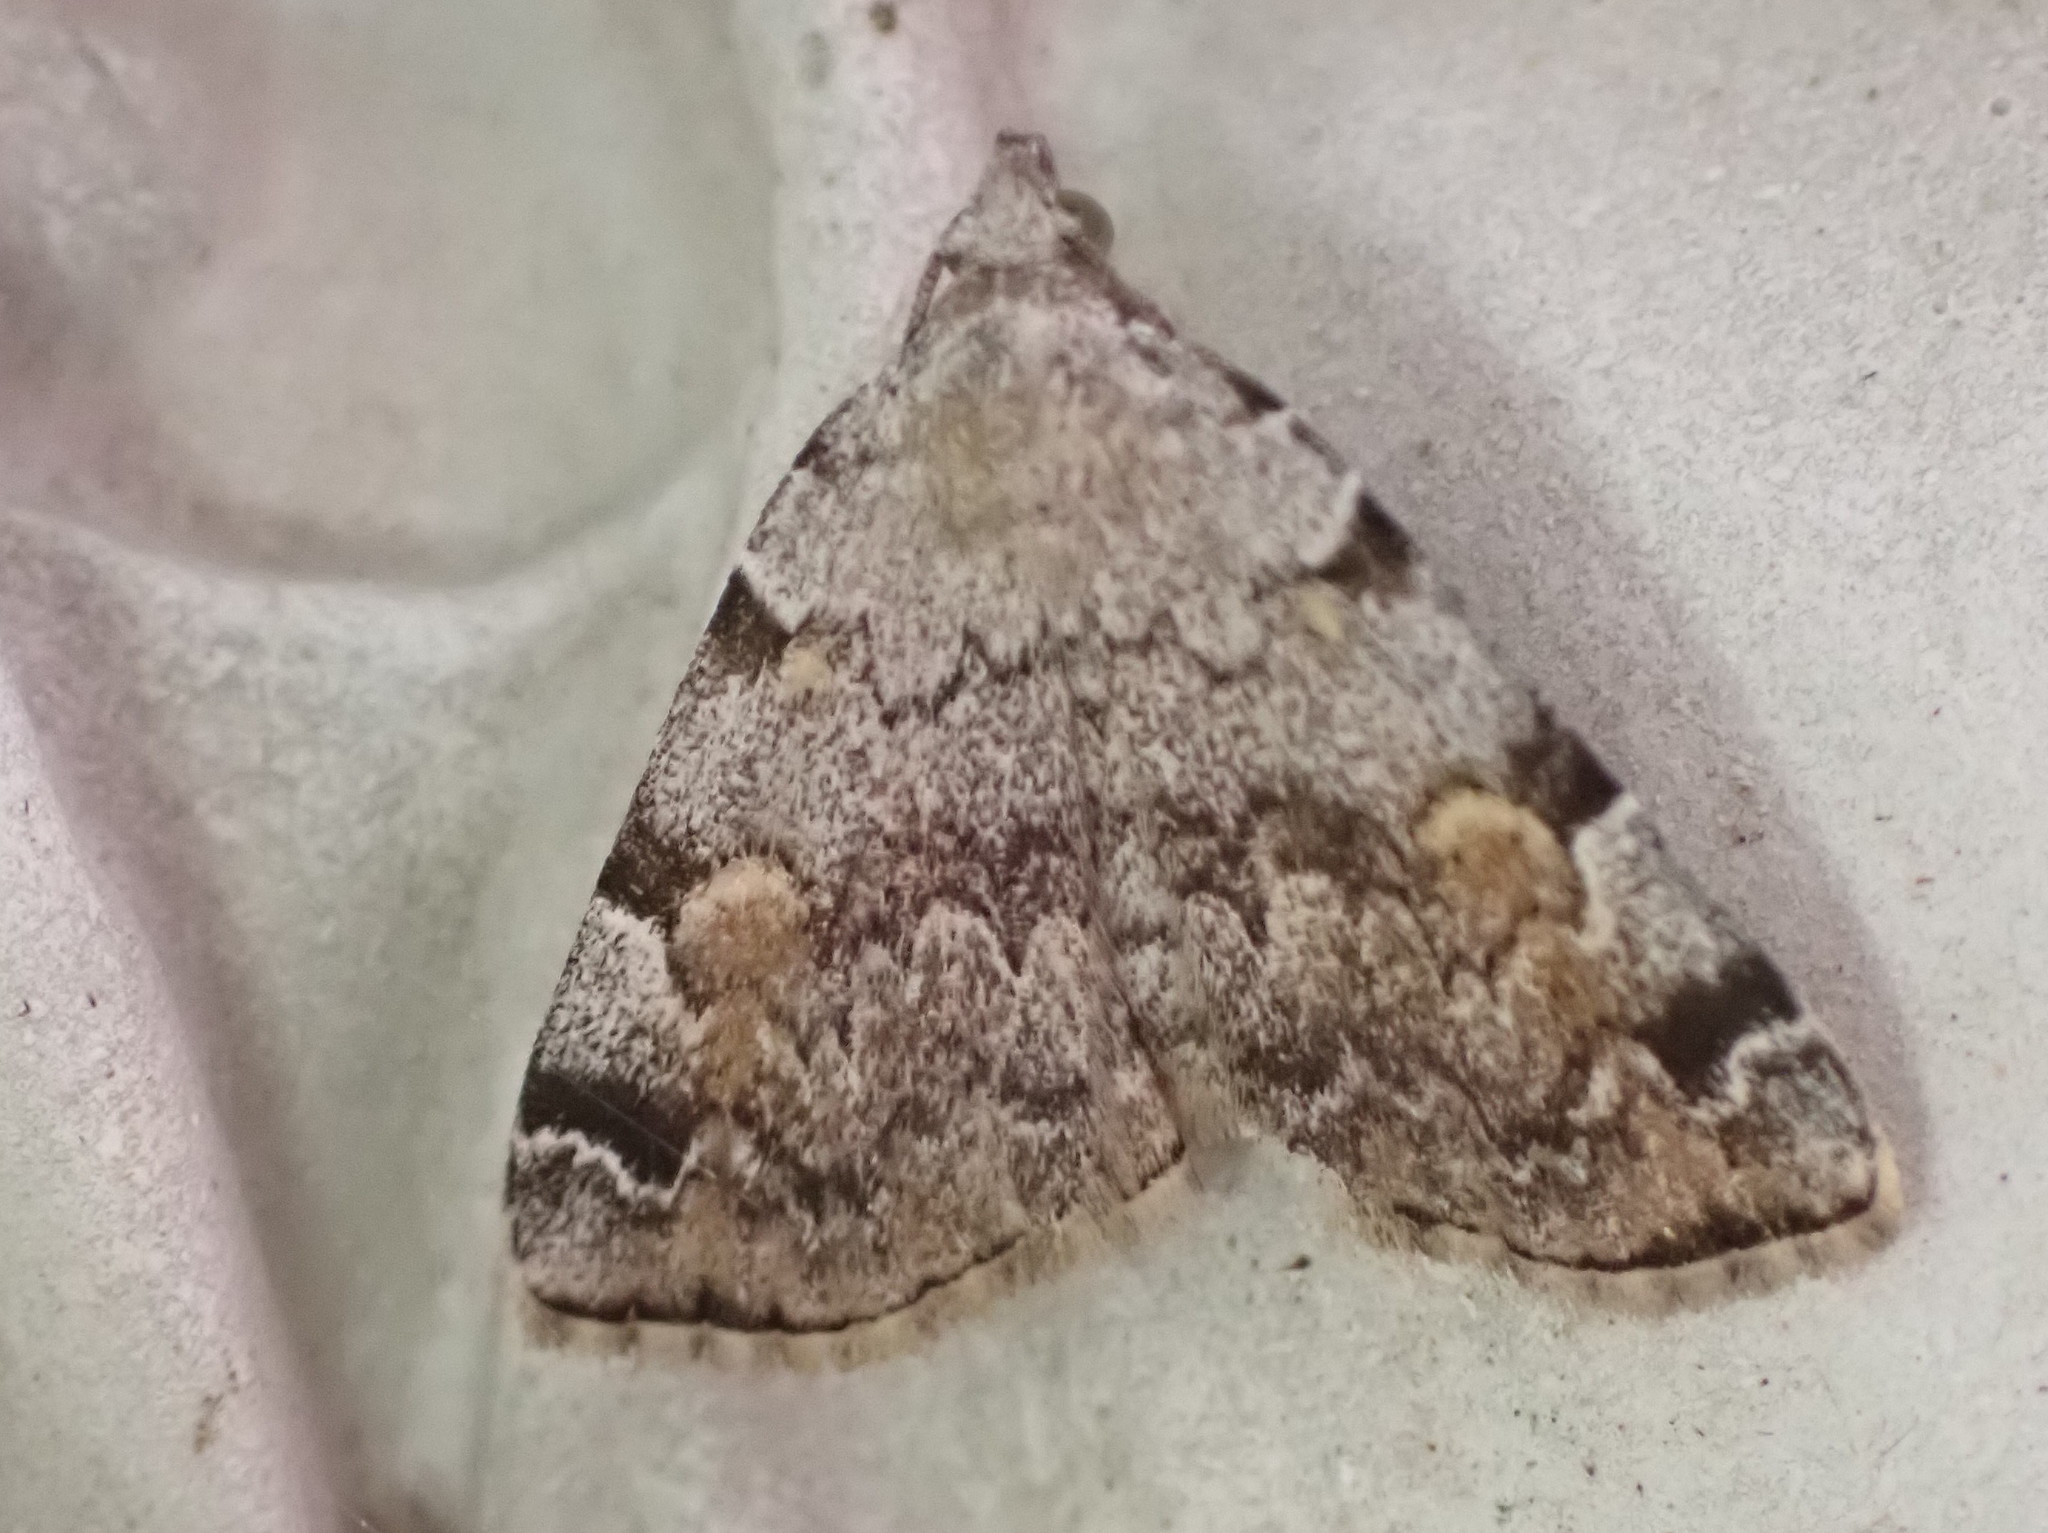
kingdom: Animalia
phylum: Arthropoda
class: Insecta
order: Lepidoptera
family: Erebidae
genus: Idia
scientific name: Idia americalis
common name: American idia moth
